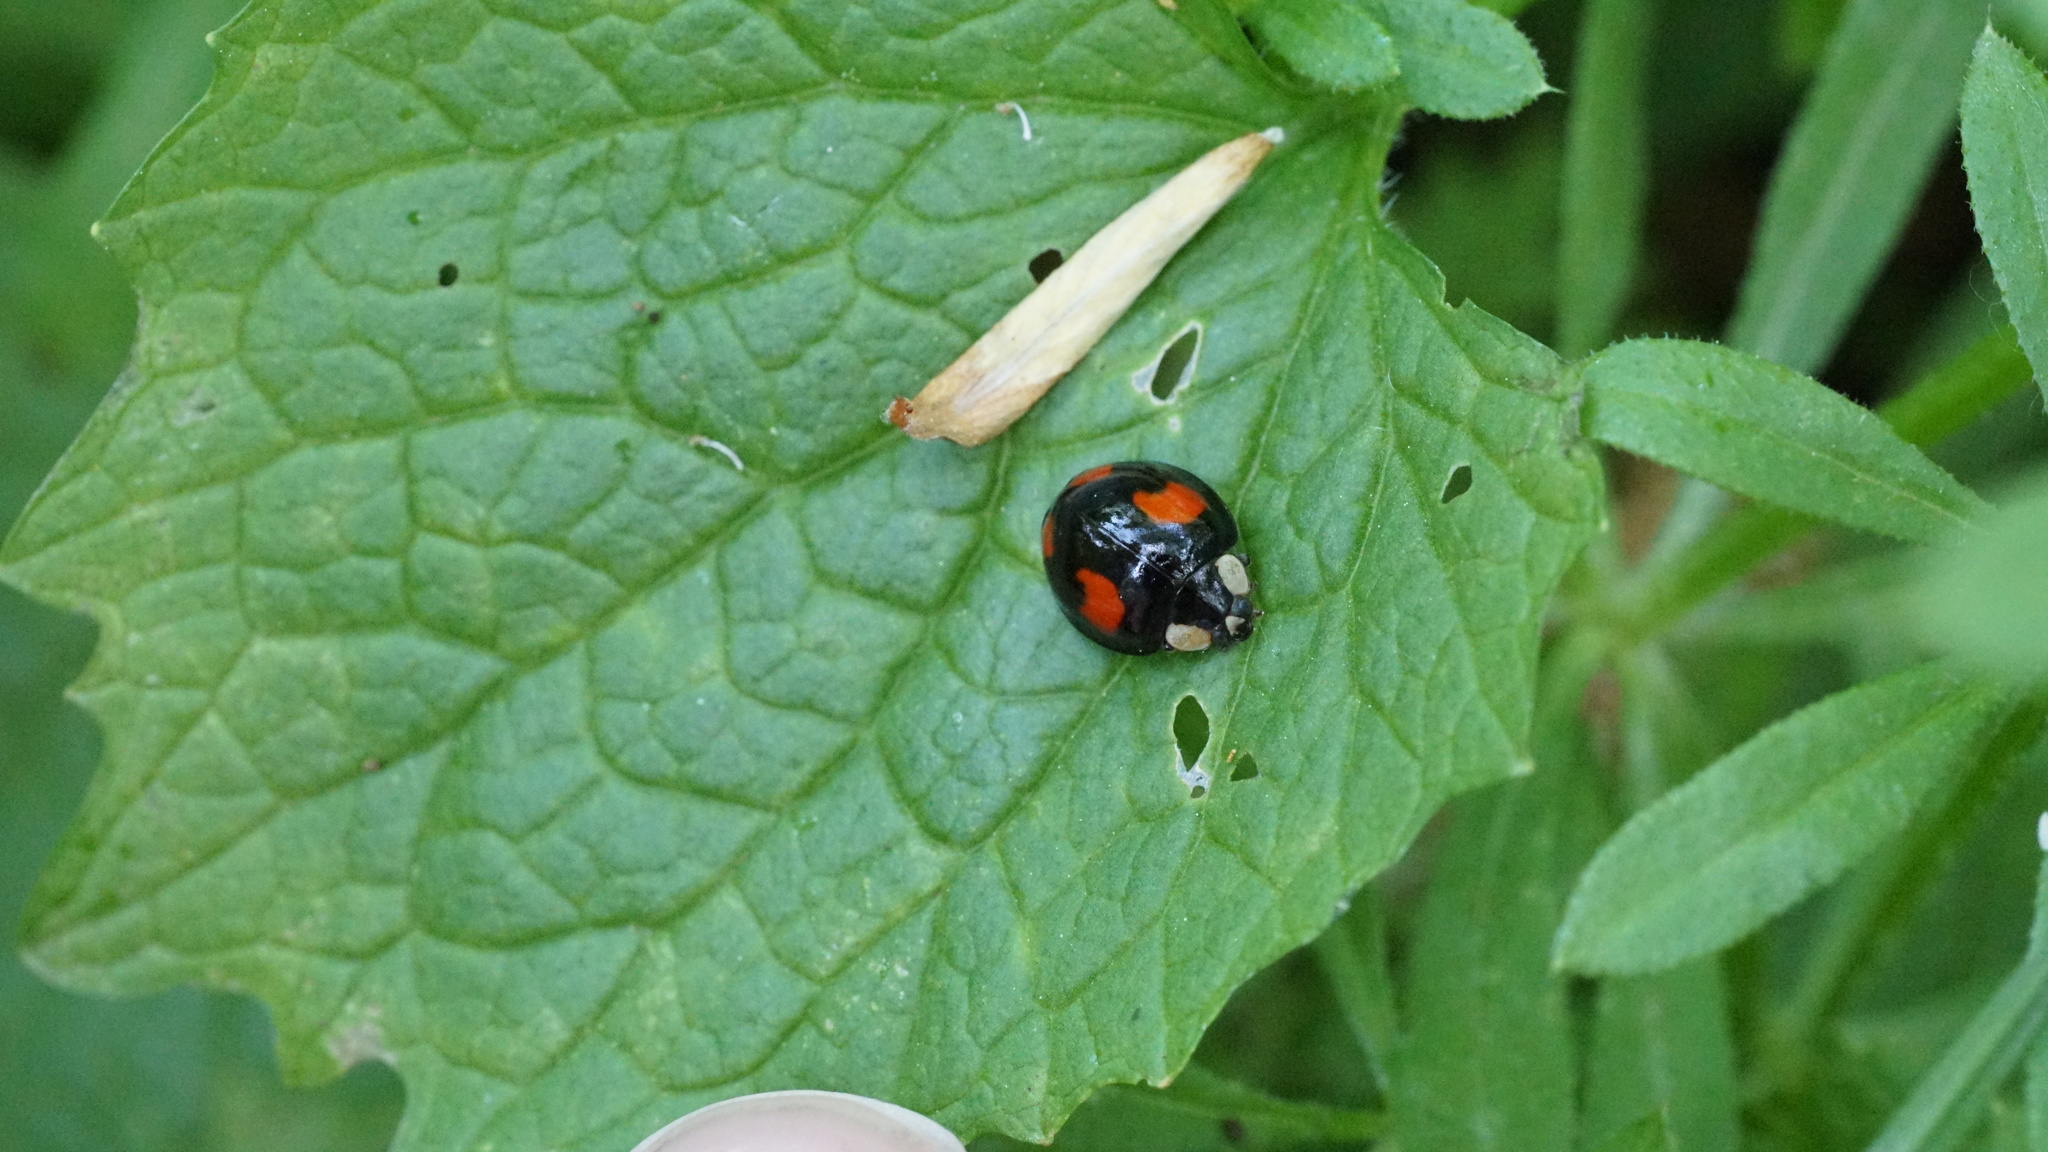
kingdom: Animalia
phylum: Arthropoda
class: Insecta
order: Coleoptera
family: Coccinellidae
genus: Harmonia
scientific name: Harmonia axyridis
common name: Harlequin ladybird
